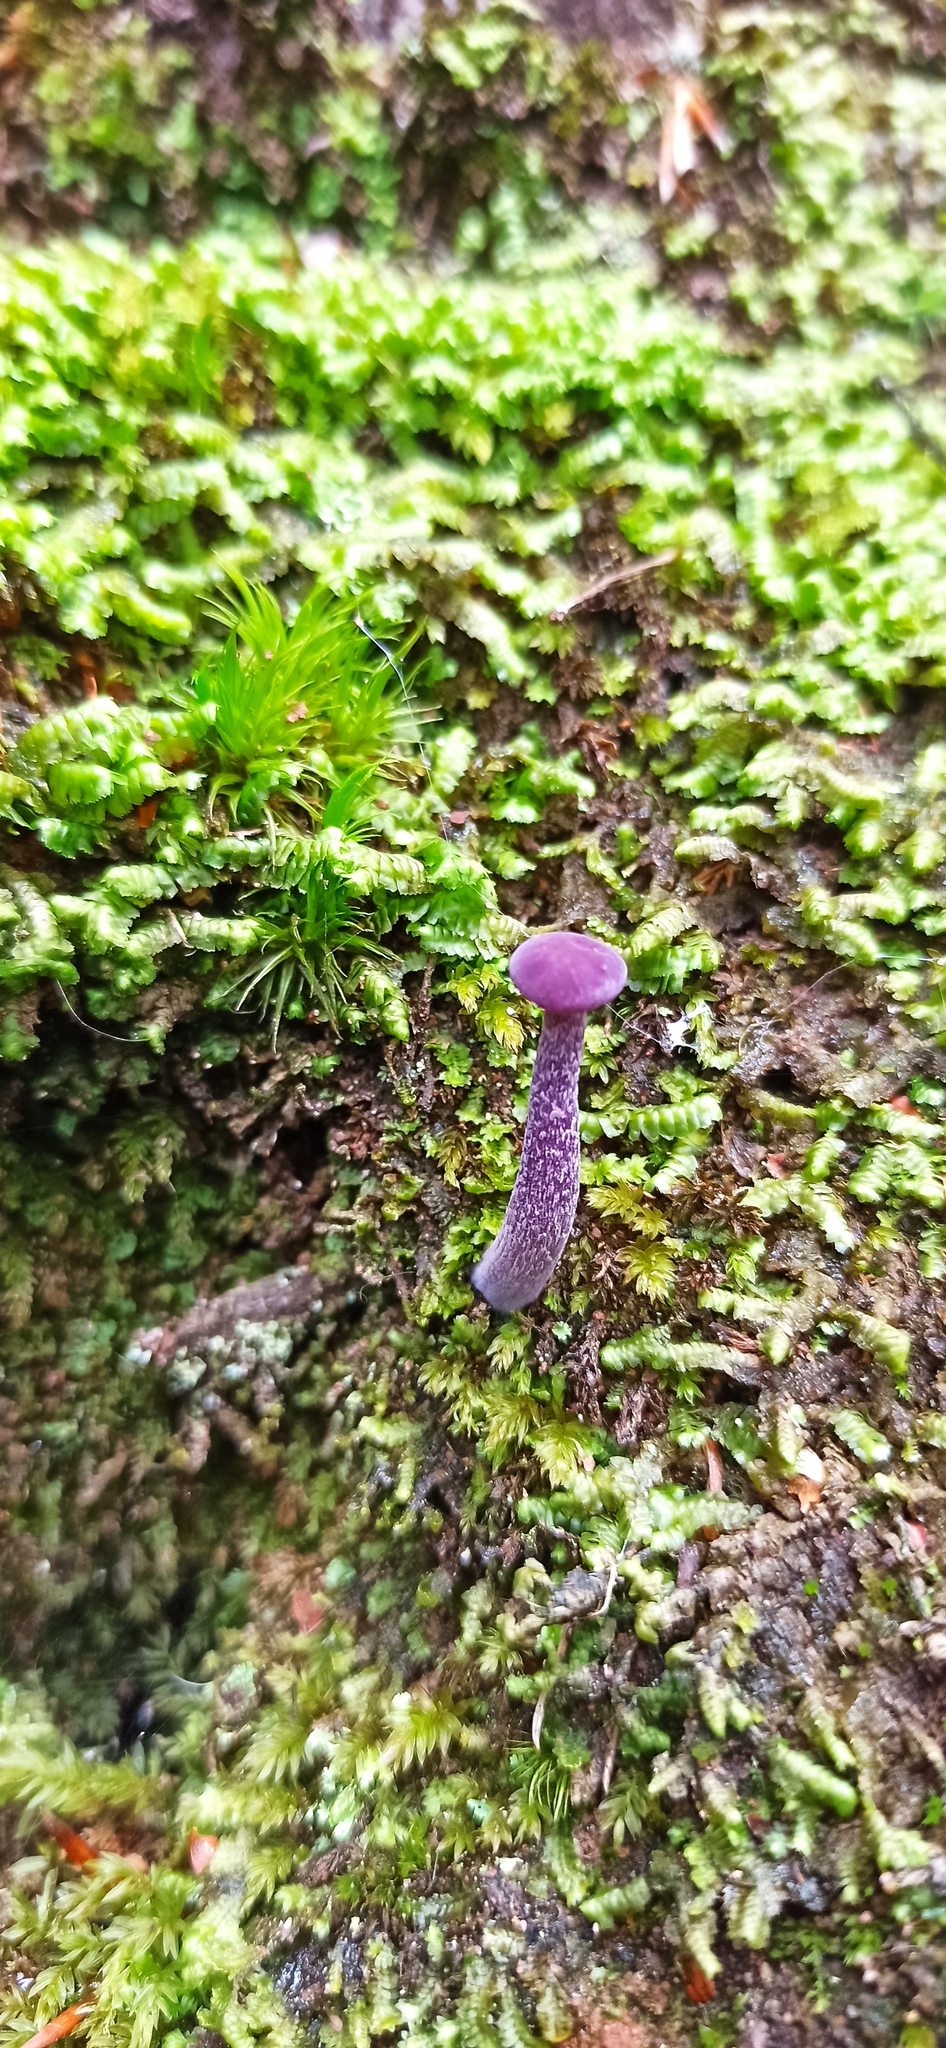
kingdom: Fungi
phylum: Basidiomycota
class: Agaricomycetes
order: Agaricales
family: Hydnangiaceae
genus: Laccaria
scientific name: Laccaria amethystina
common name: Amethyst deceiver
